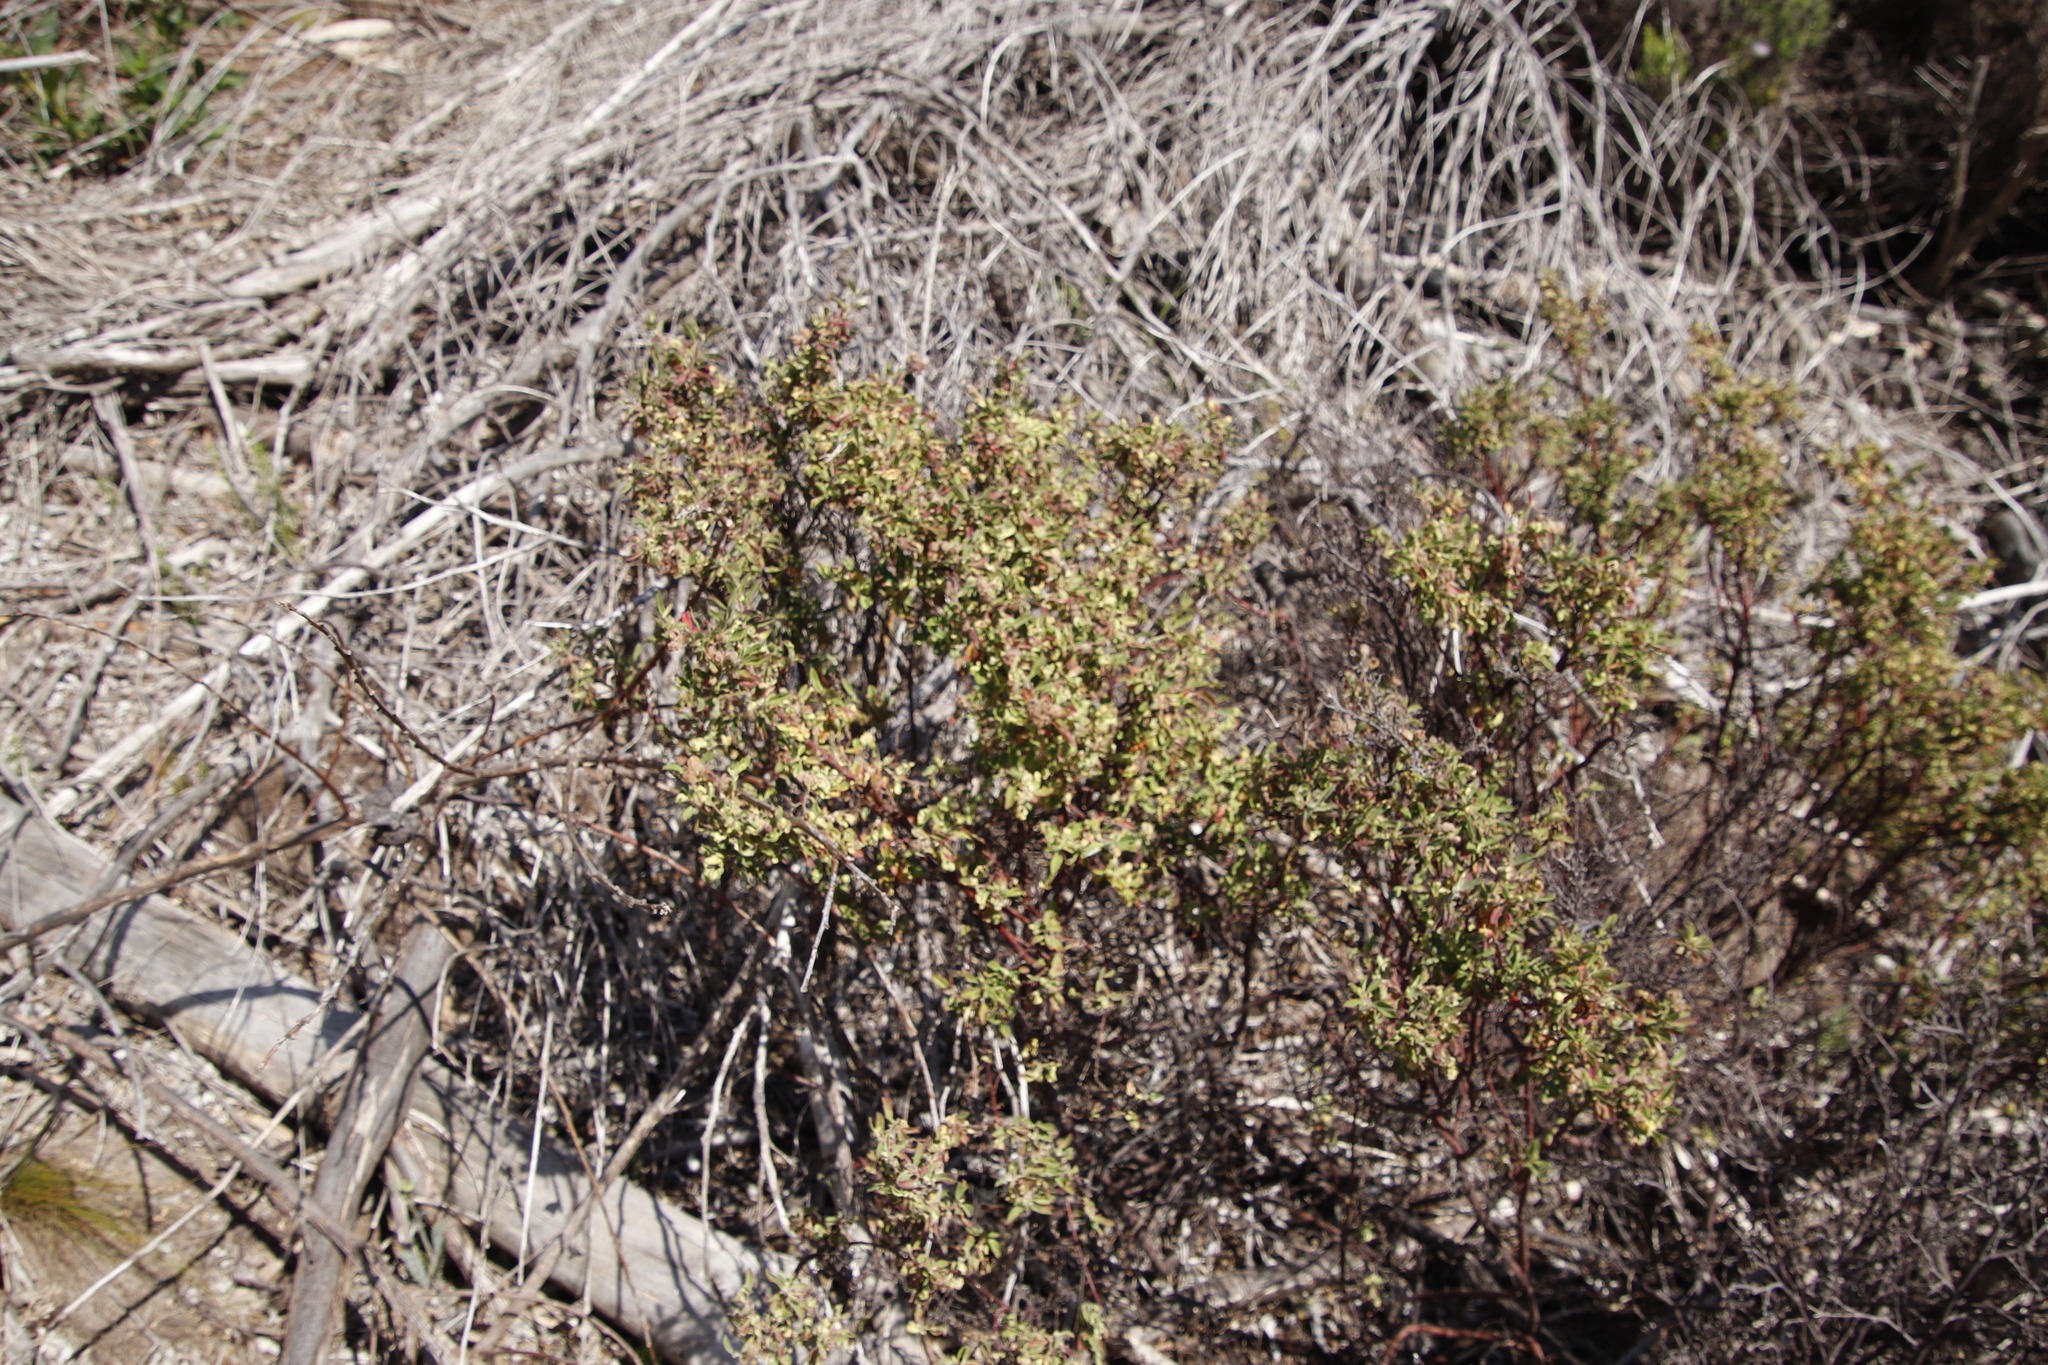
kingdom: Plantae
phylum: Tracheophyta
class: Magnoliopsida
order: Malvales
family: Malvaceae
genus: Hermannia
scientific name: Hermannia hyssopifolia
